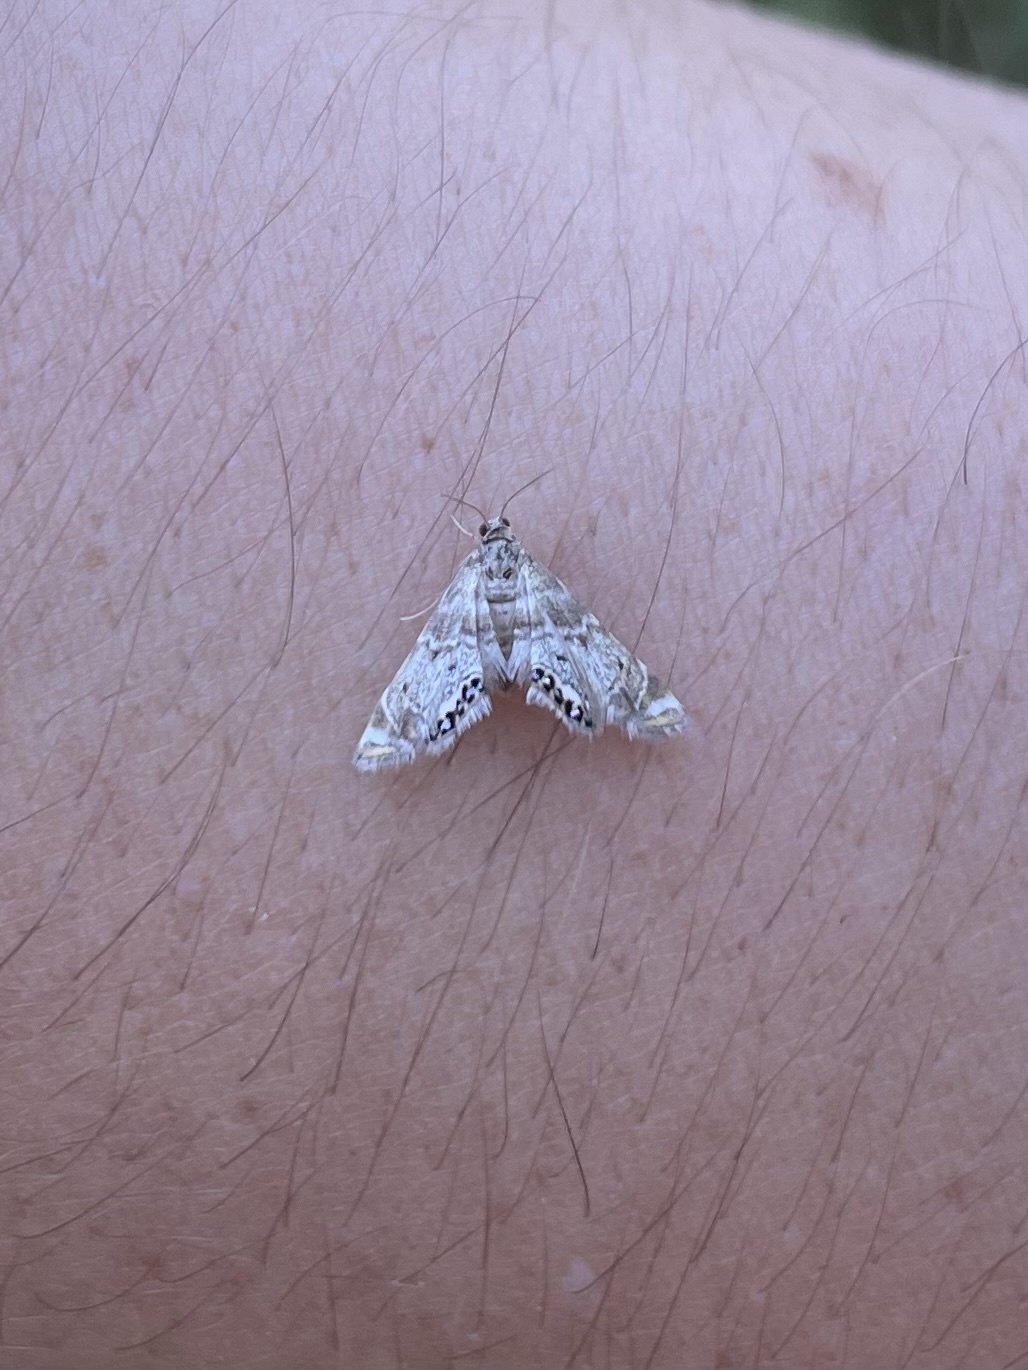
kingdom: Animalia
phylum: Arthropoda
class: Insecta
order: Lepidoptera
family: Crambidae
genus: Petrophila
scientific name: Petrophila confusalis
